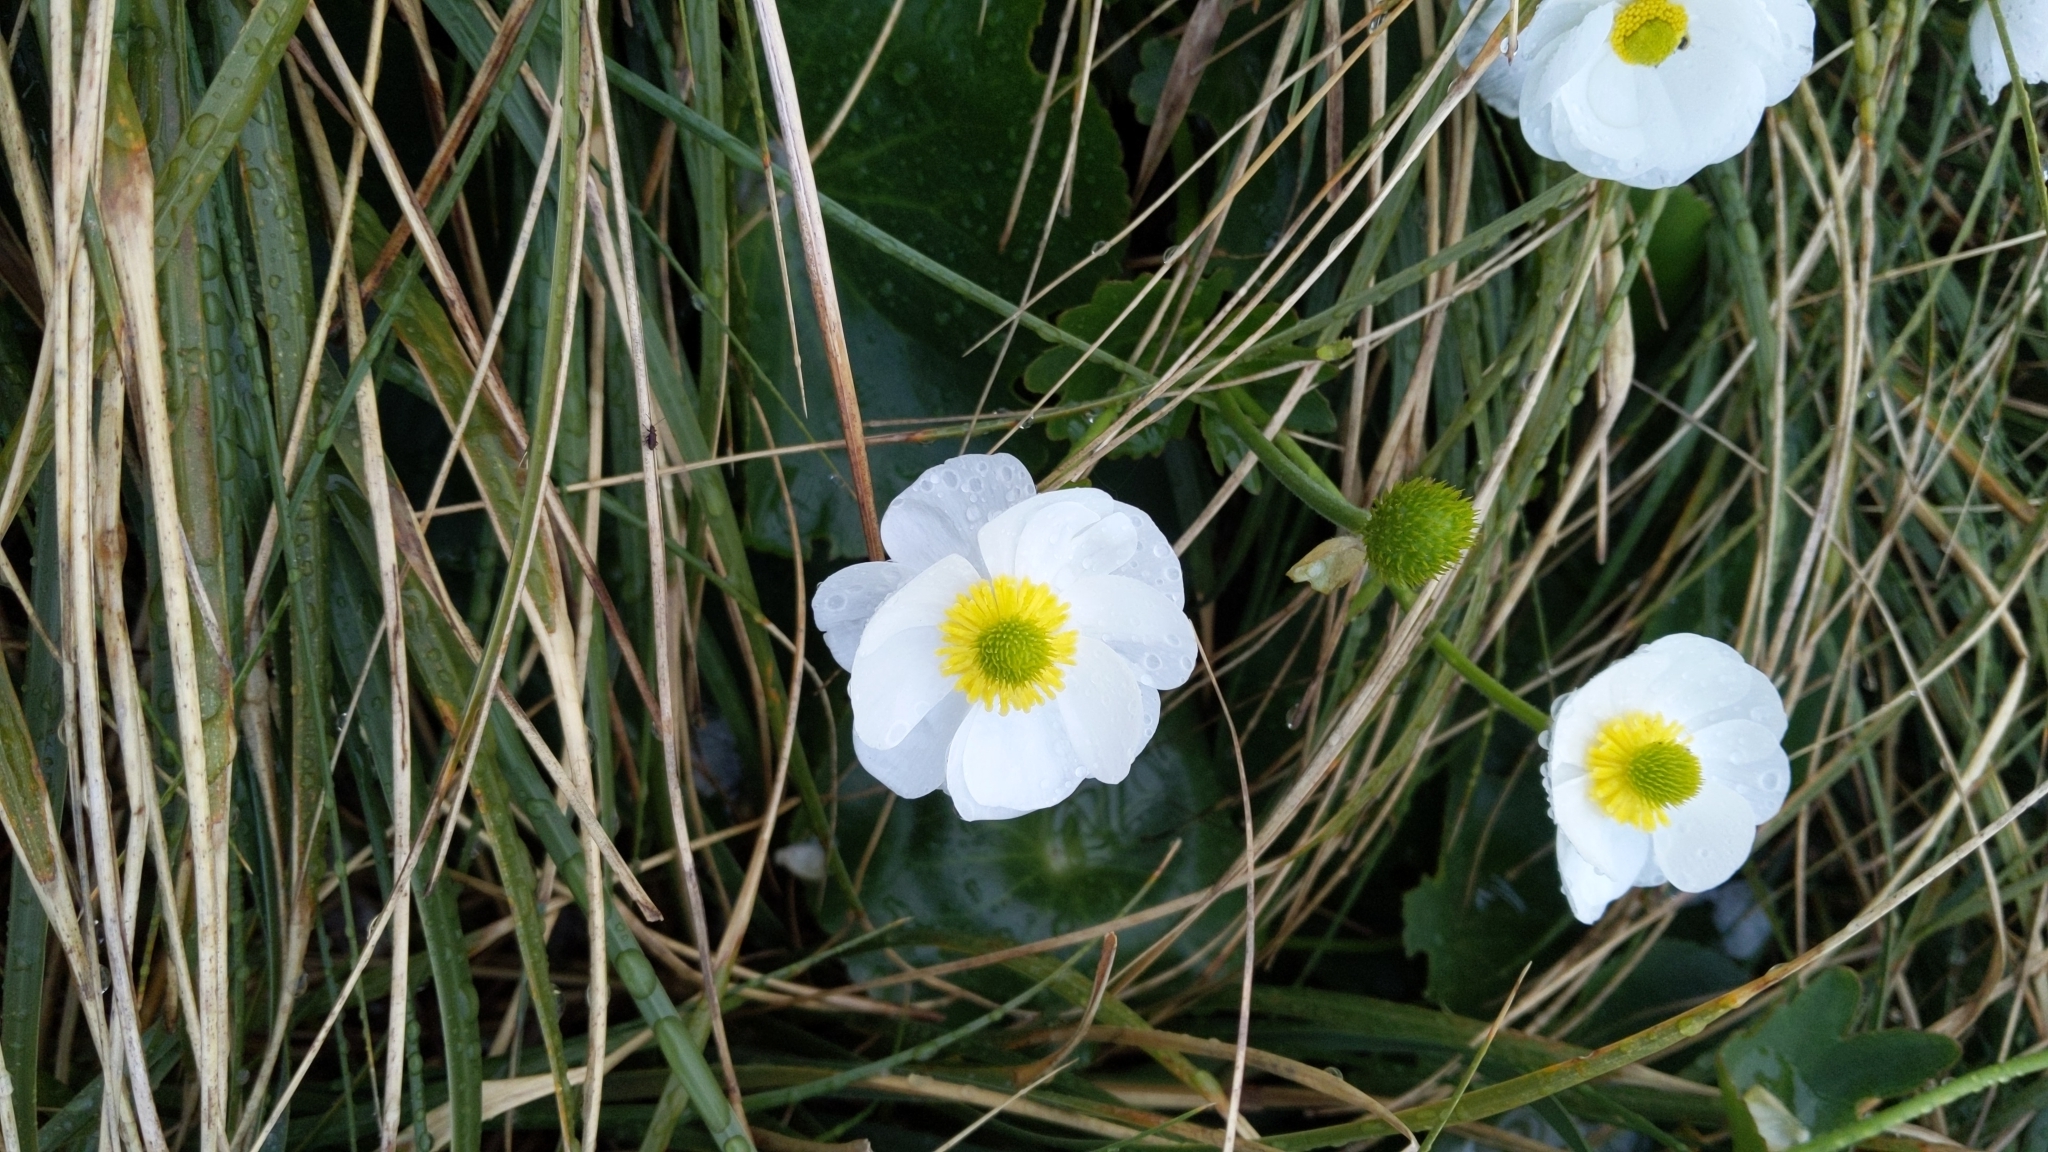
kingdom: Plantae
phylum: Tracheophyta
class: Magnoliopsida
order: Ranunculales
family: Ranunculaceae
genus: Ranunculus
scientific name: Ranunculus lyallii
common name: Mountain-lily
